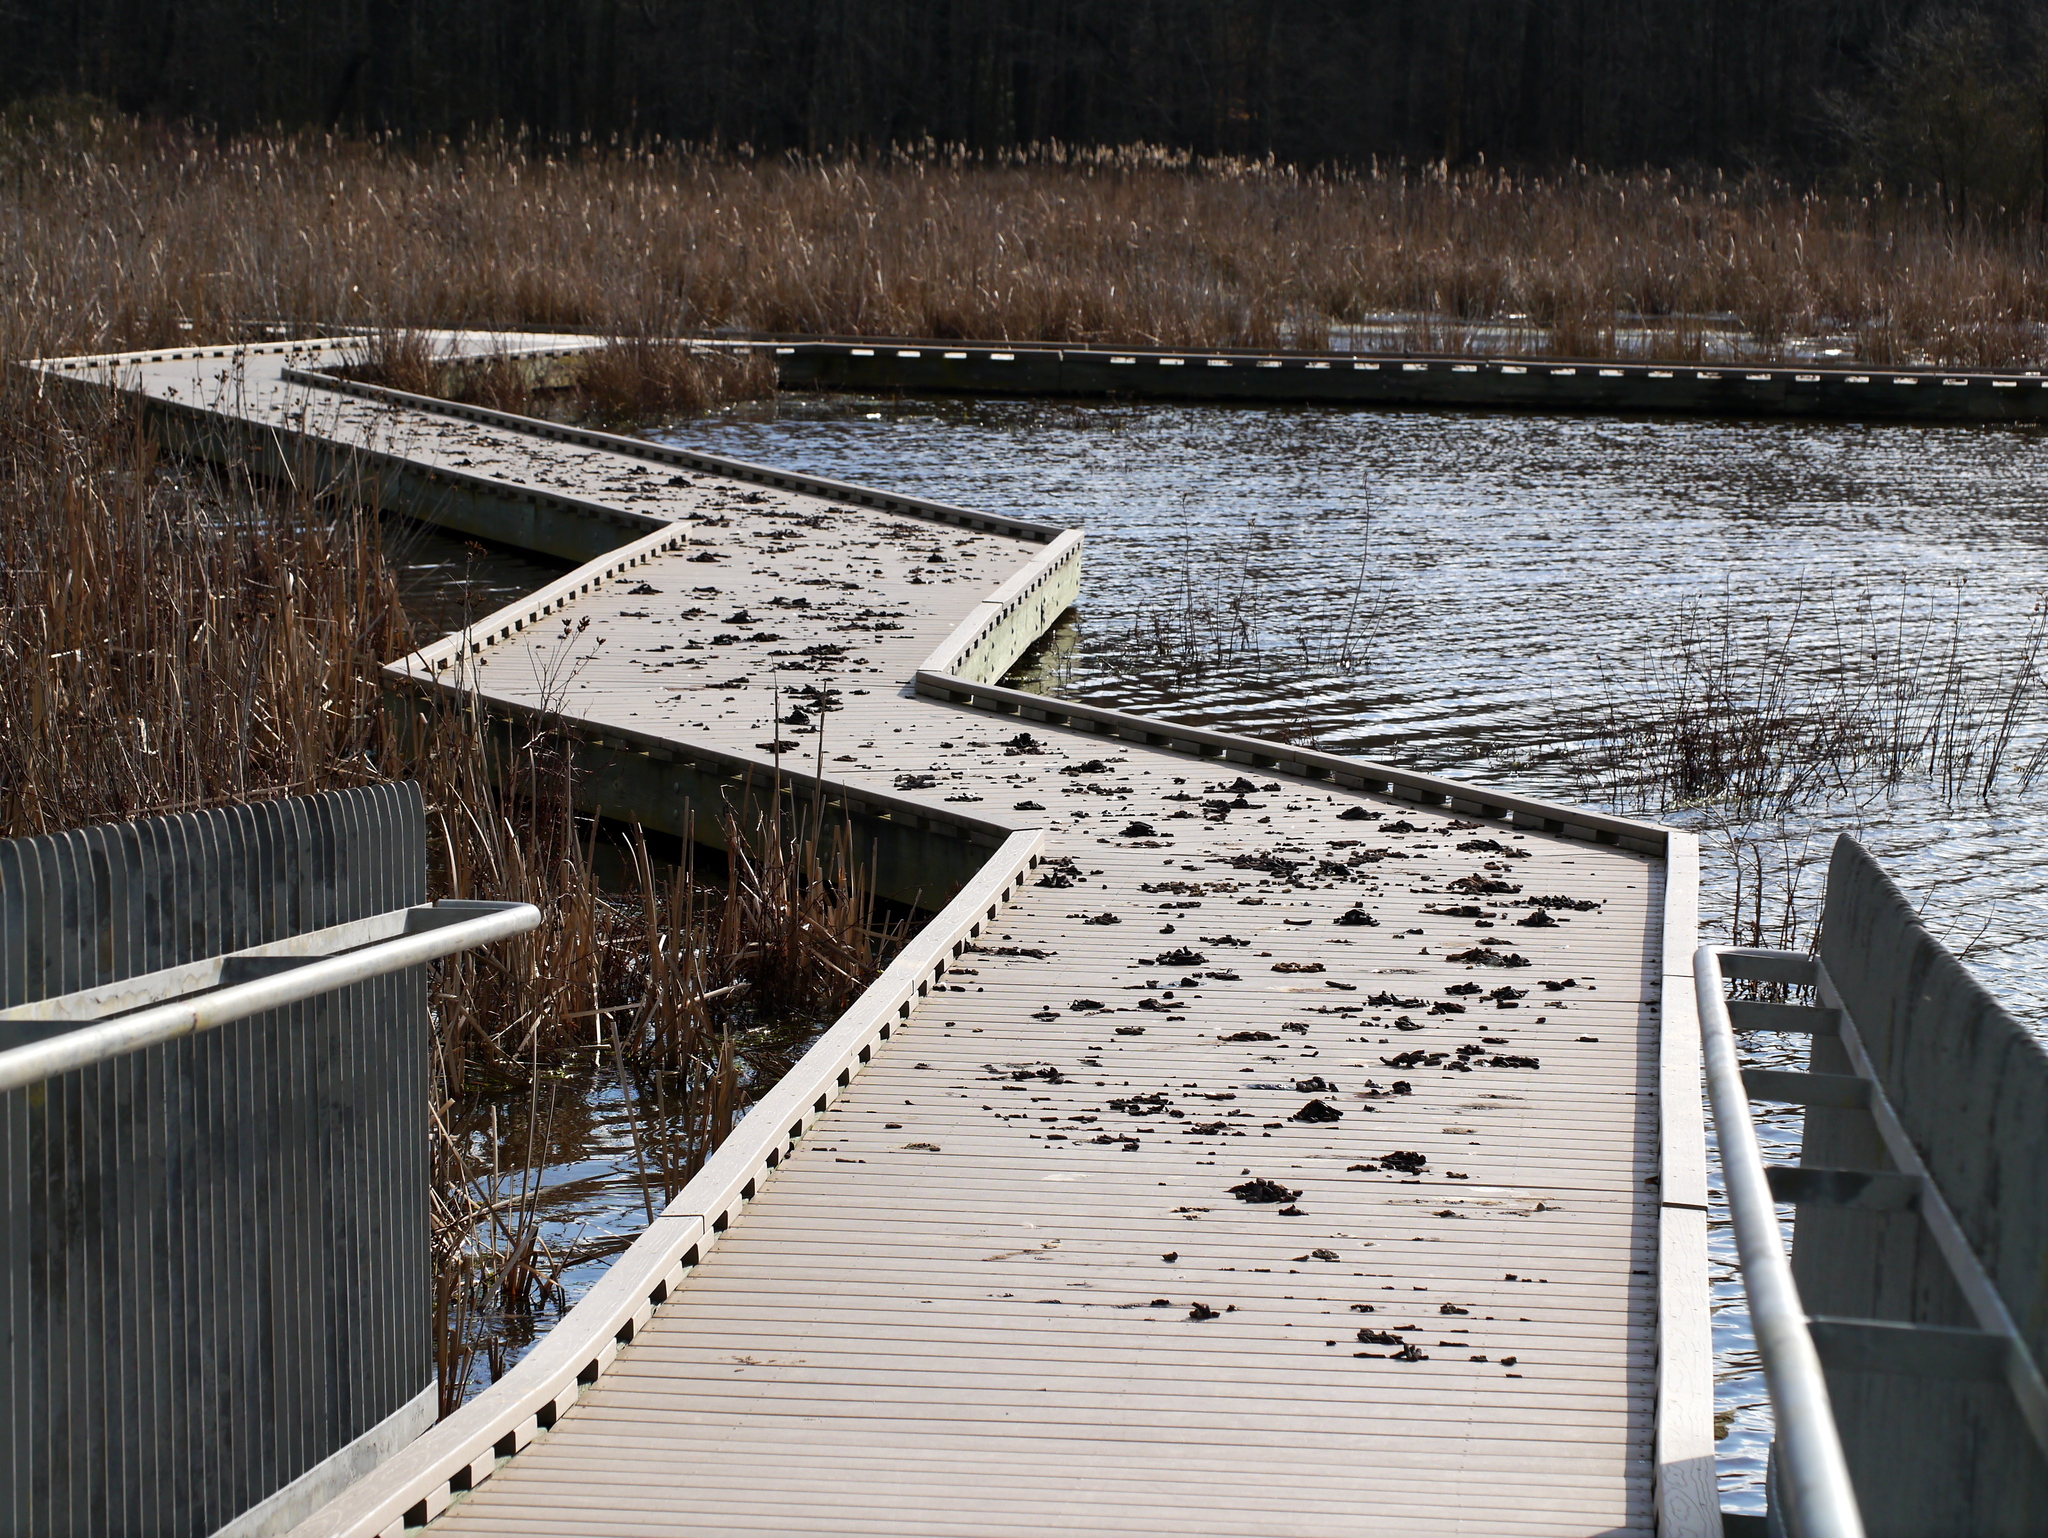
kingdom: Animalia
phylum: Chordata
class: Aves
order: Anseriformes
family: Anatidae
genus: Branta
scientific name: Branta canadensis
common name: Canada goose
